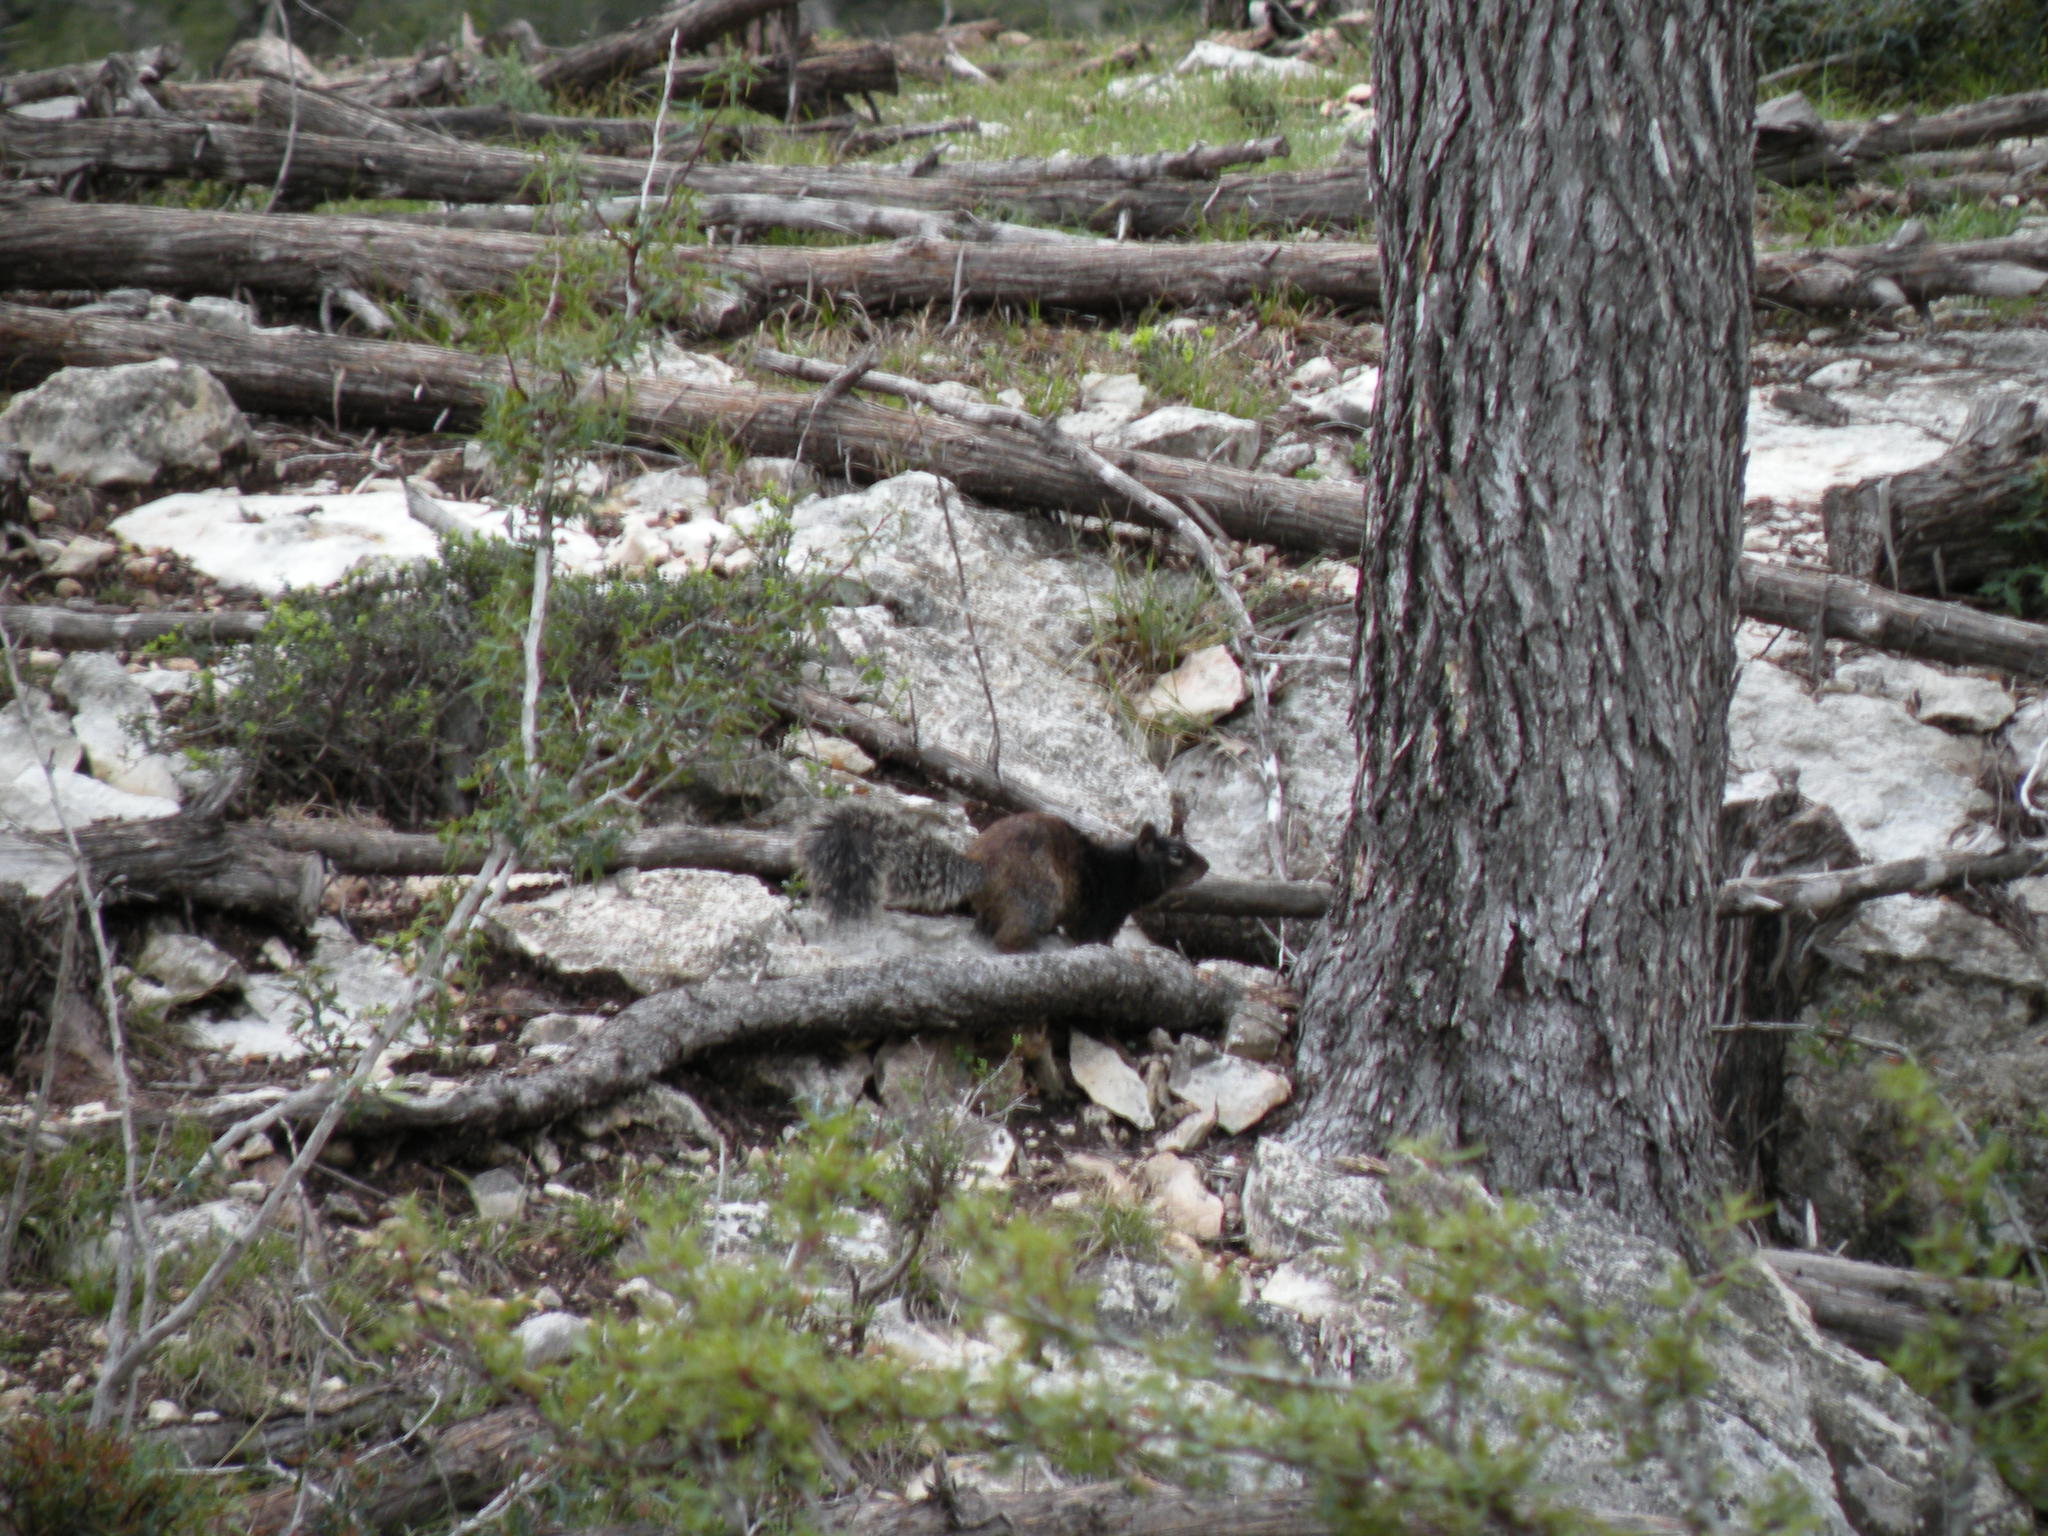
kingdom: Animalia
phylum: Chordata
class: Mammalia
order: Rodentia
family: Sciuridae
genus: Otospermophilus
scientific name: Otospermophilus variegatus
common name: Rock squirrel
